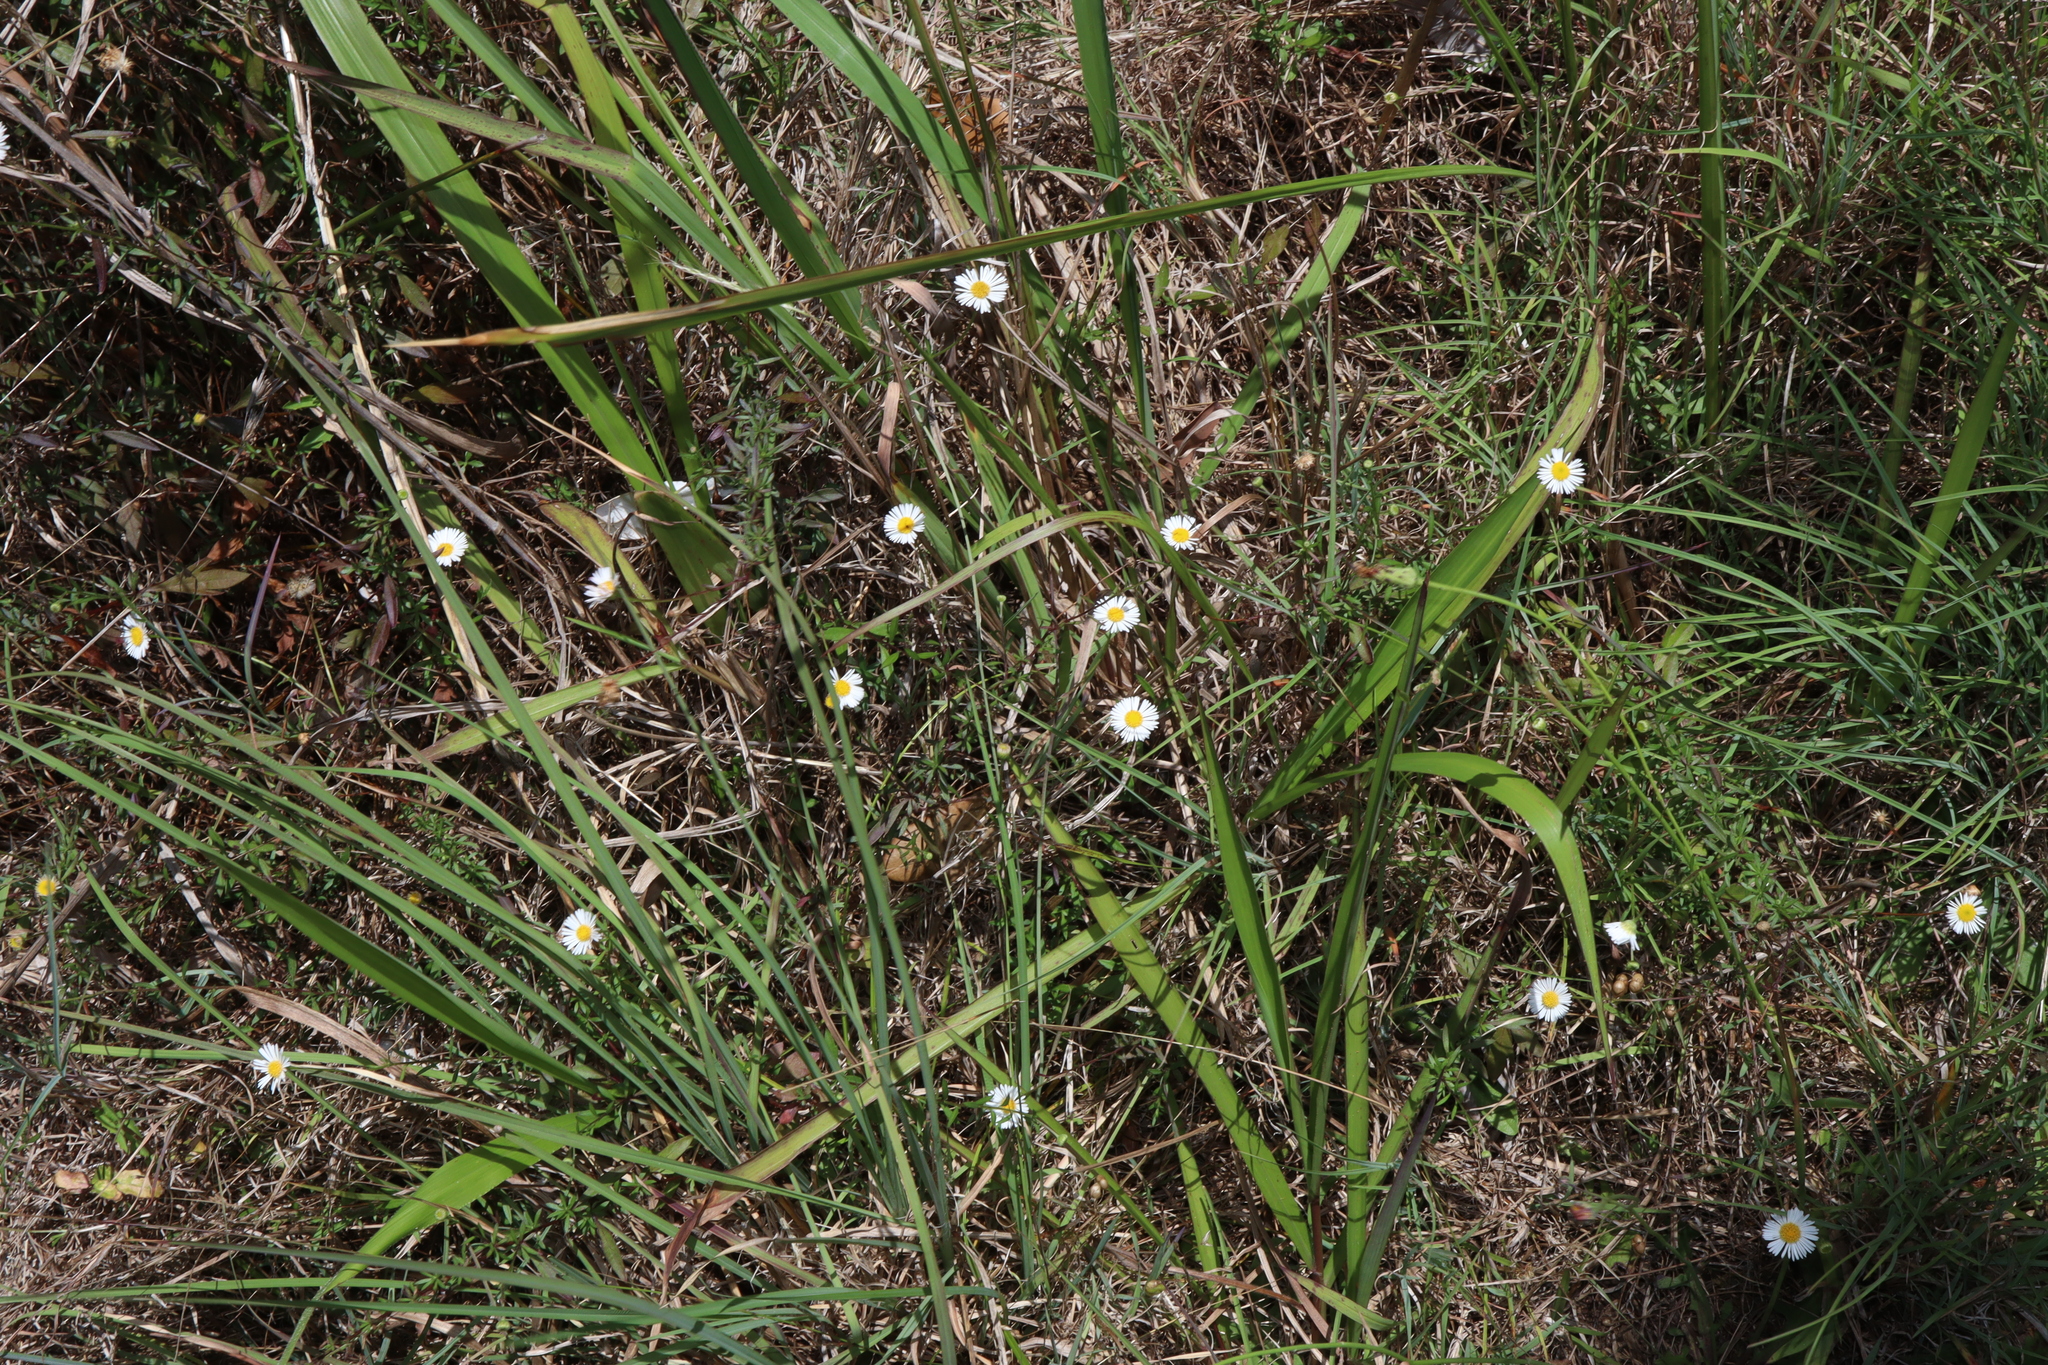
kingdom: Plantae
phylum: Tracheophyta
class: Magnoliopsida
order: Asterales
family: Asteraceae
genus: Erigeron
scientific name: Erigeron karvinskianus
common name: Mexican fleabane
